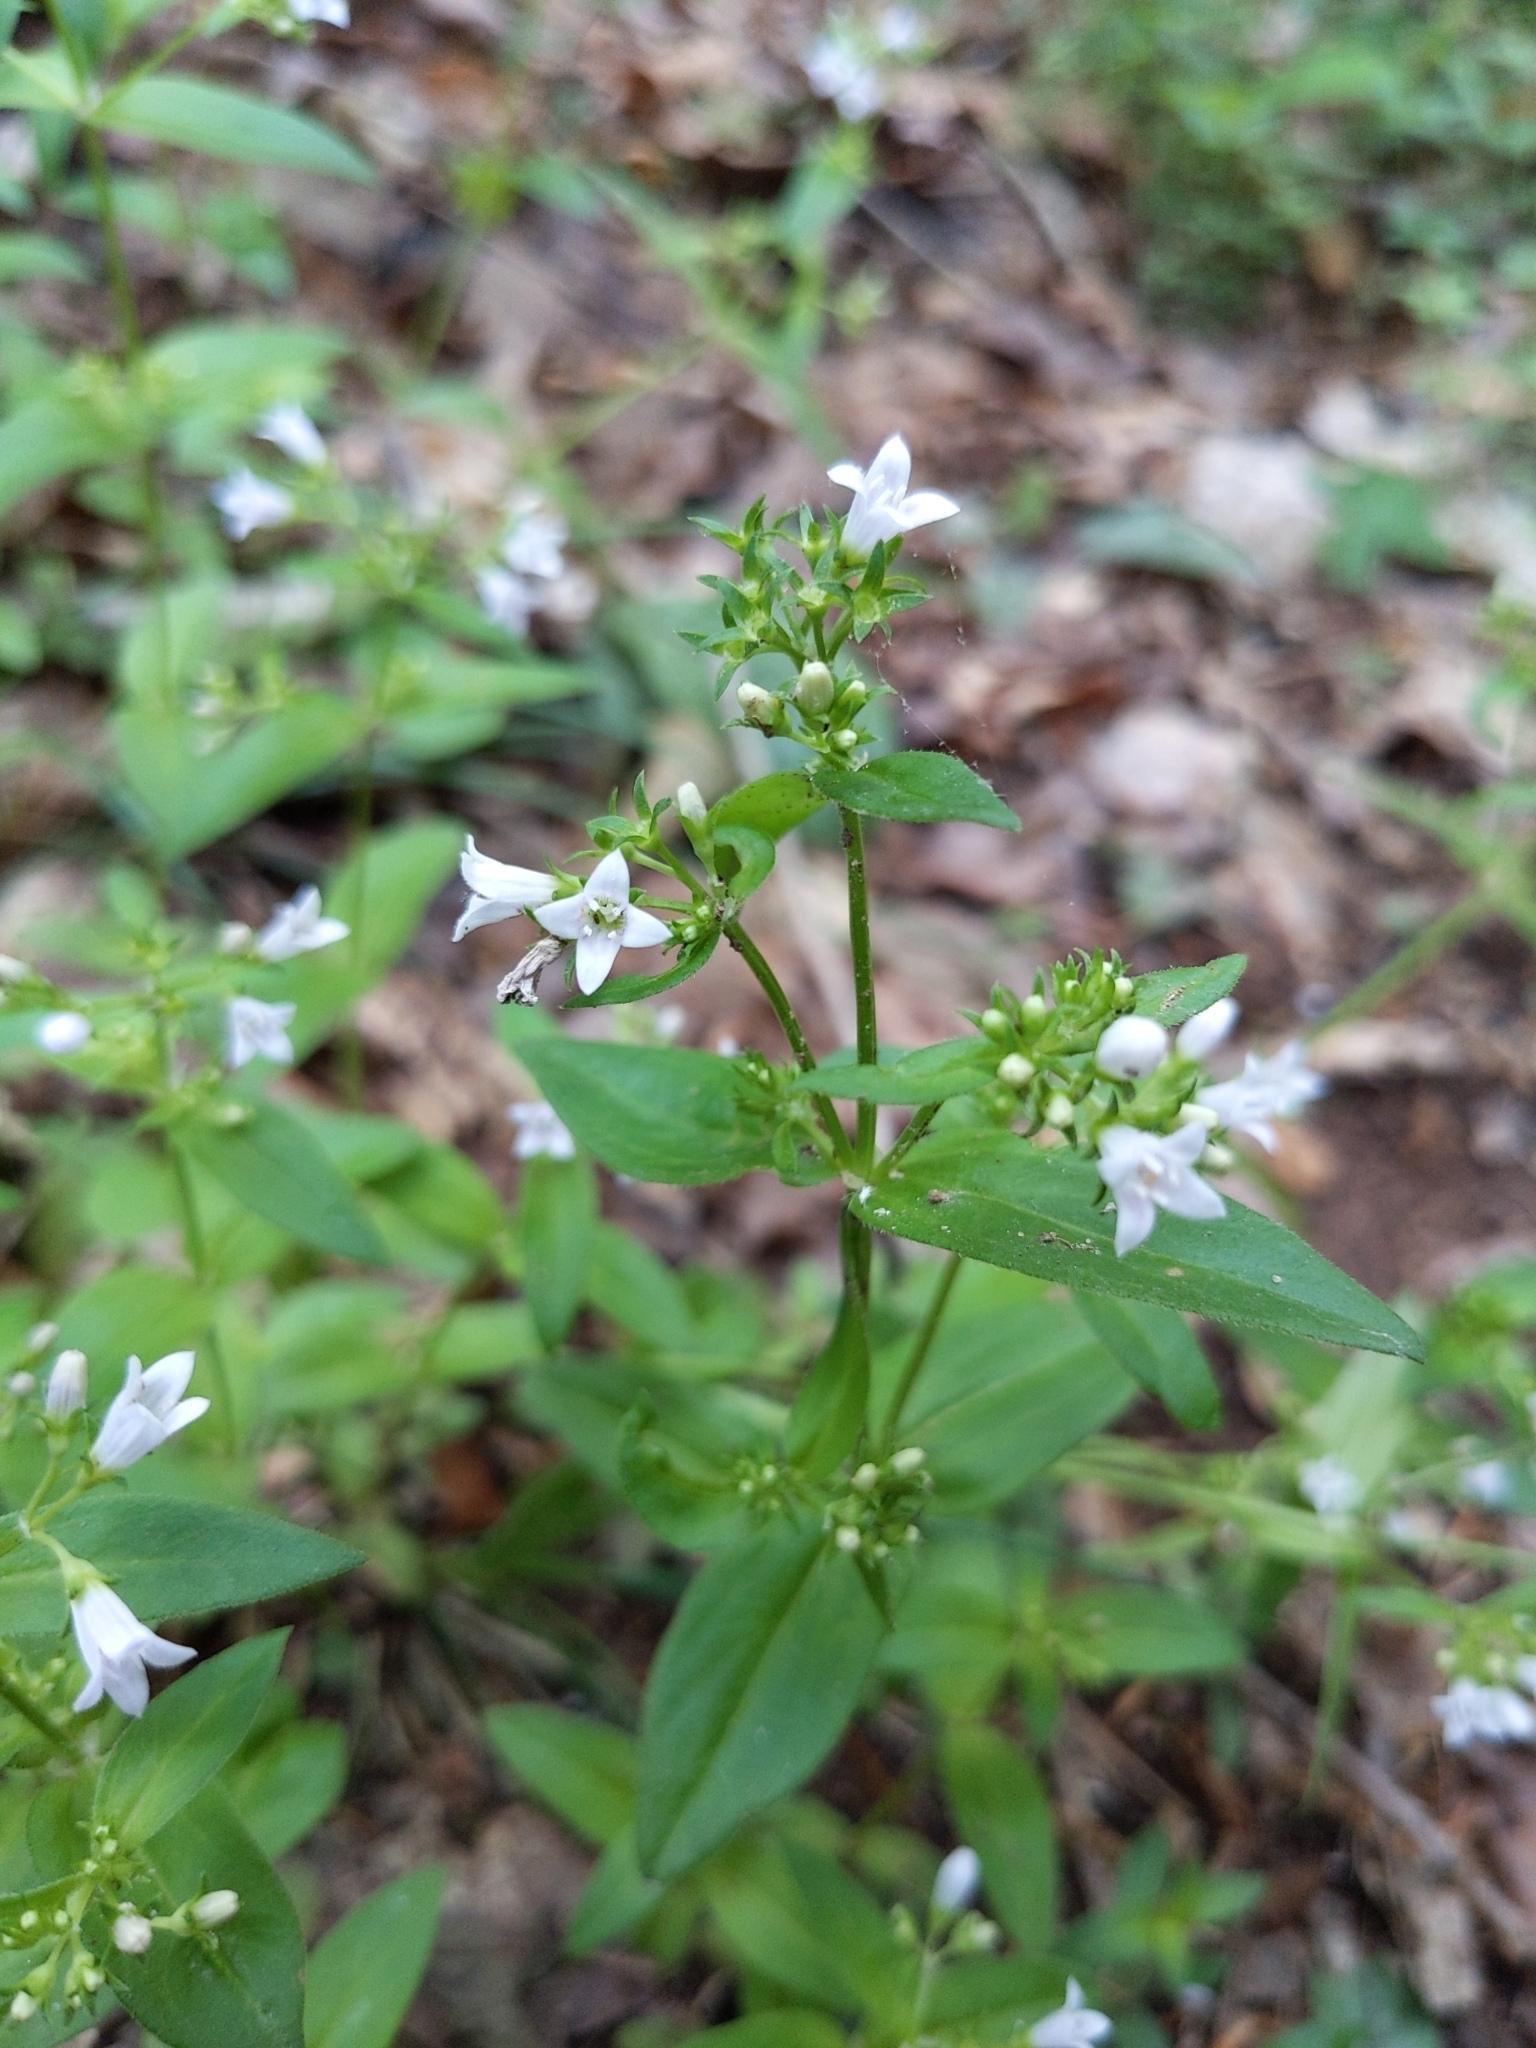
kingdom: Plantae
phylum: Tracheophyta
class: Magnoliopsida
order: Gentianales
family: Rubiaceae
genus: Houstonia
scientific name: Houstonia purpurea
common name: Summer bluet
